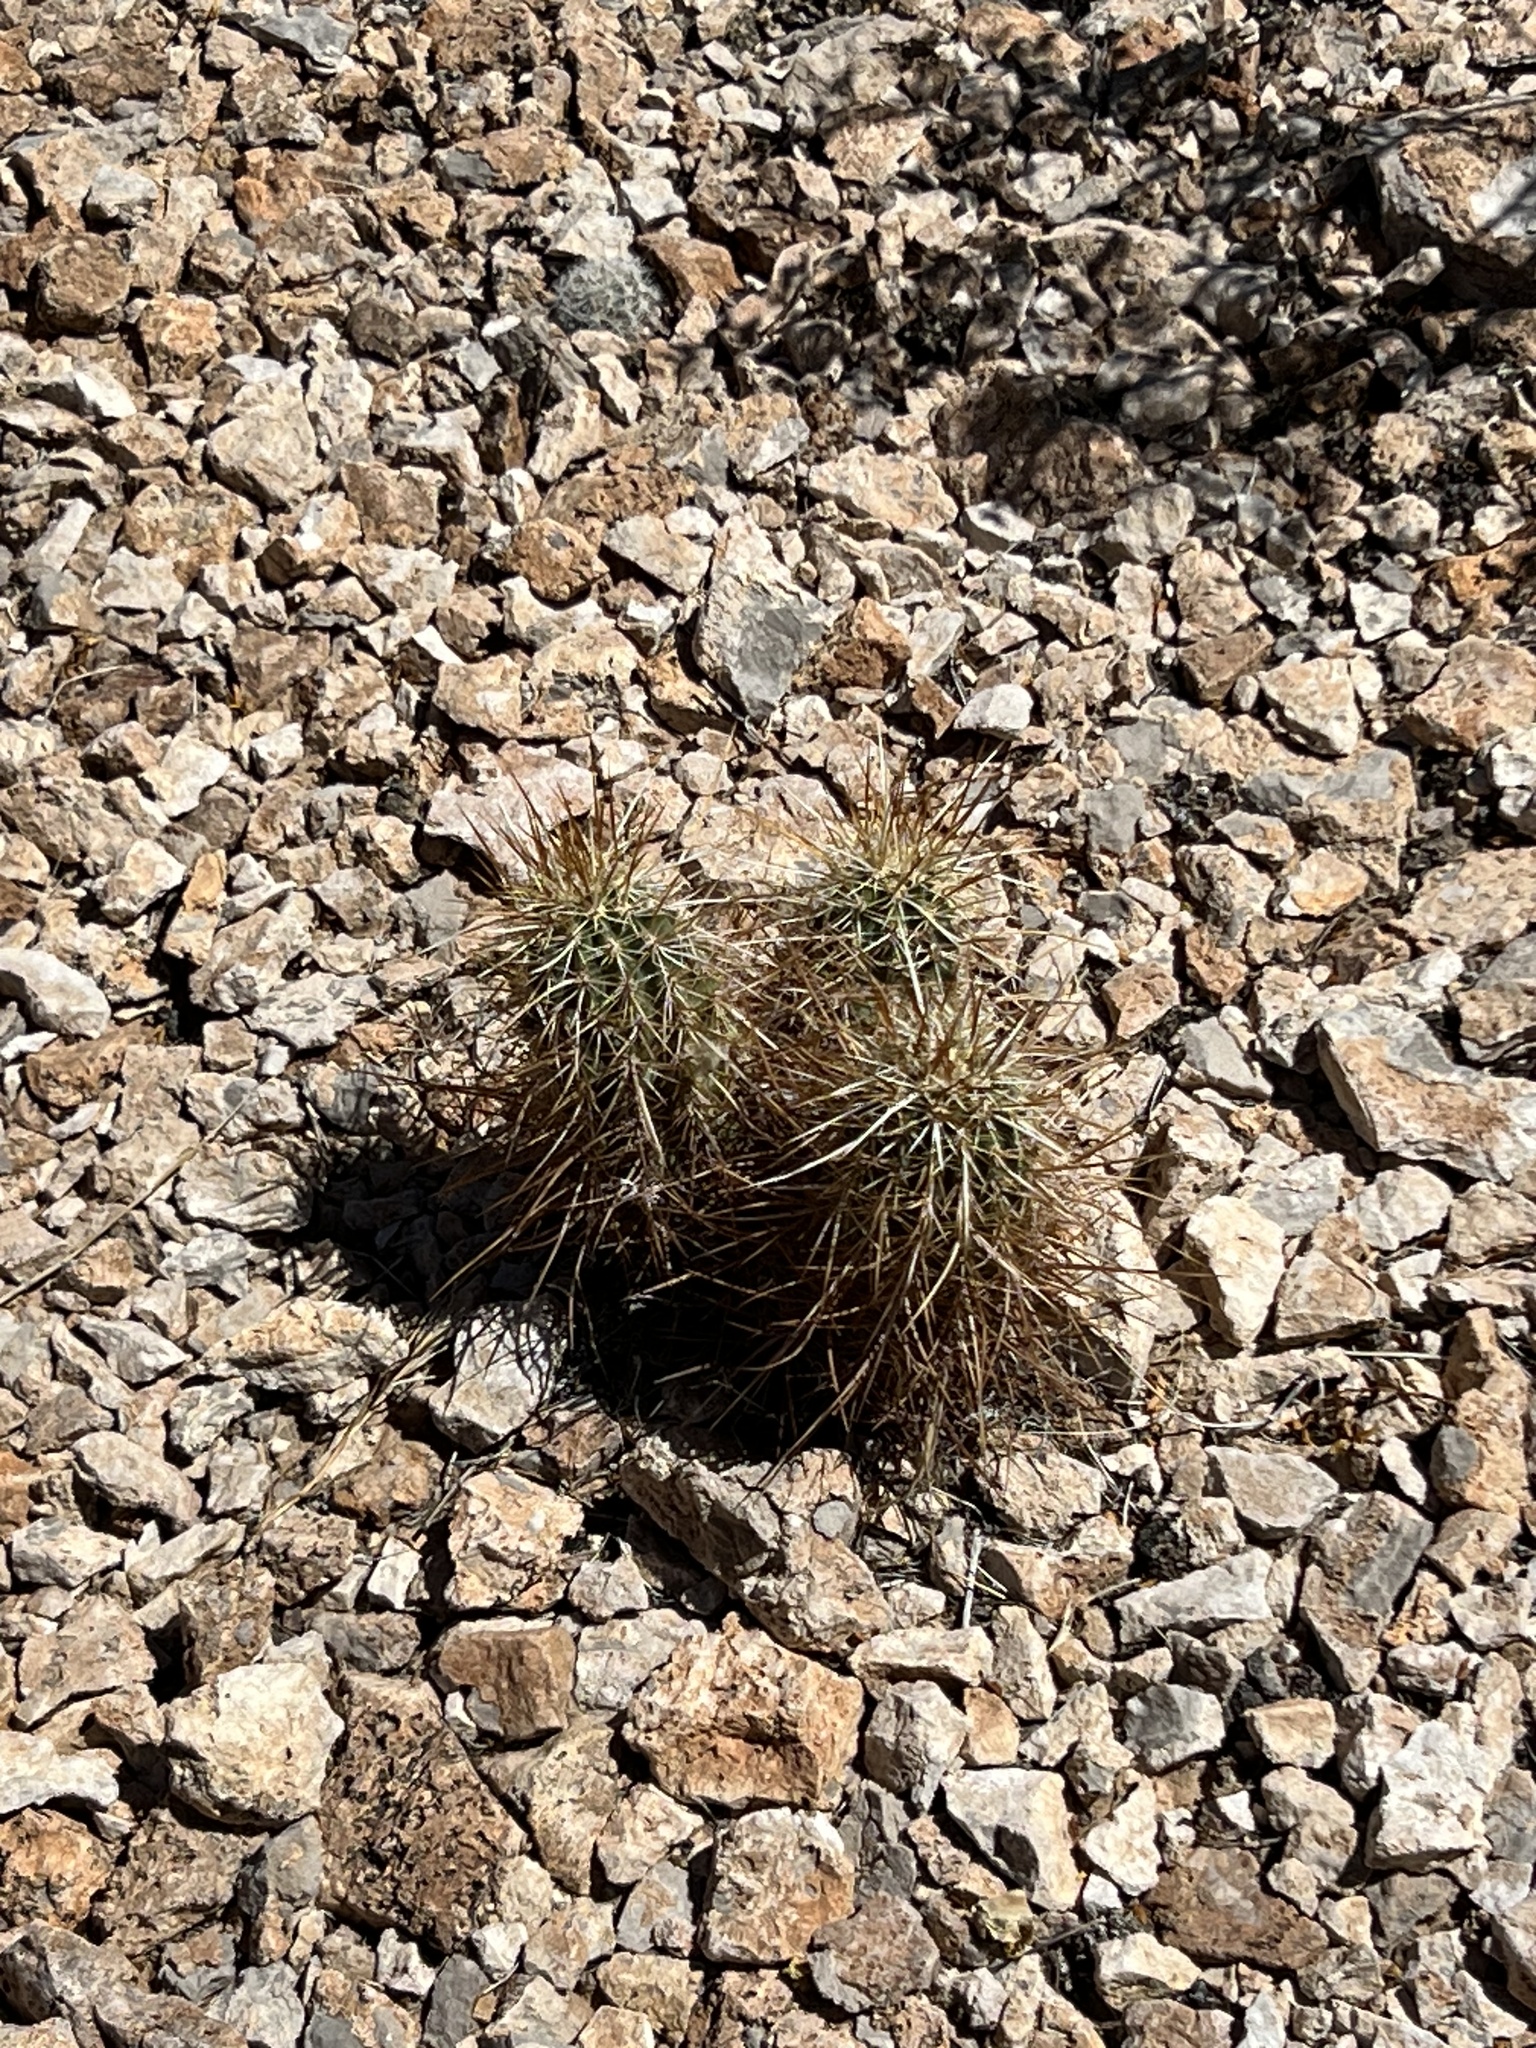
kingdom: Plantae
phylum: Tracheophyta
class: Magnoliopsida
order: Caryophyllales
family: Cactaceae
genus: Echinocereus
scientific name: Echinocereus engelmannii
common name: Engelmann's hedgehog cactus
